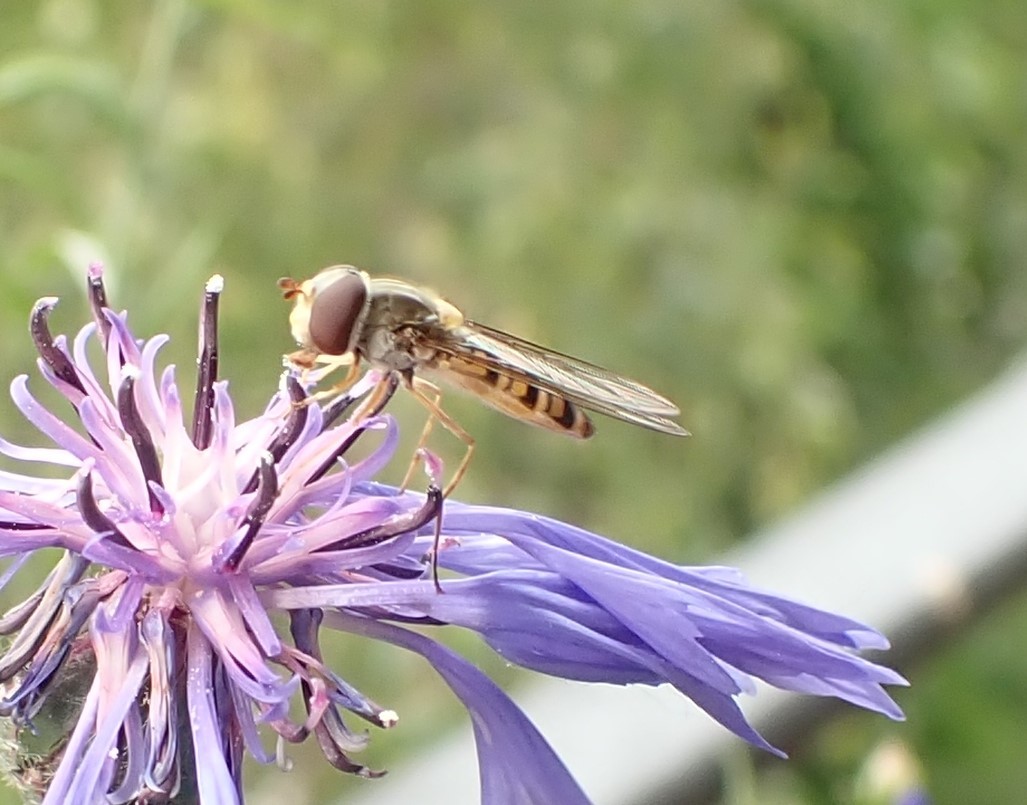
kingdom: Animalia
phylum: Arthropoda
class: Insecta
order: Diptera
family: Syrphidae
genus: Episyrphus
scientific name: Episyrphus balteatus
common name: Marmalade hoverfly
